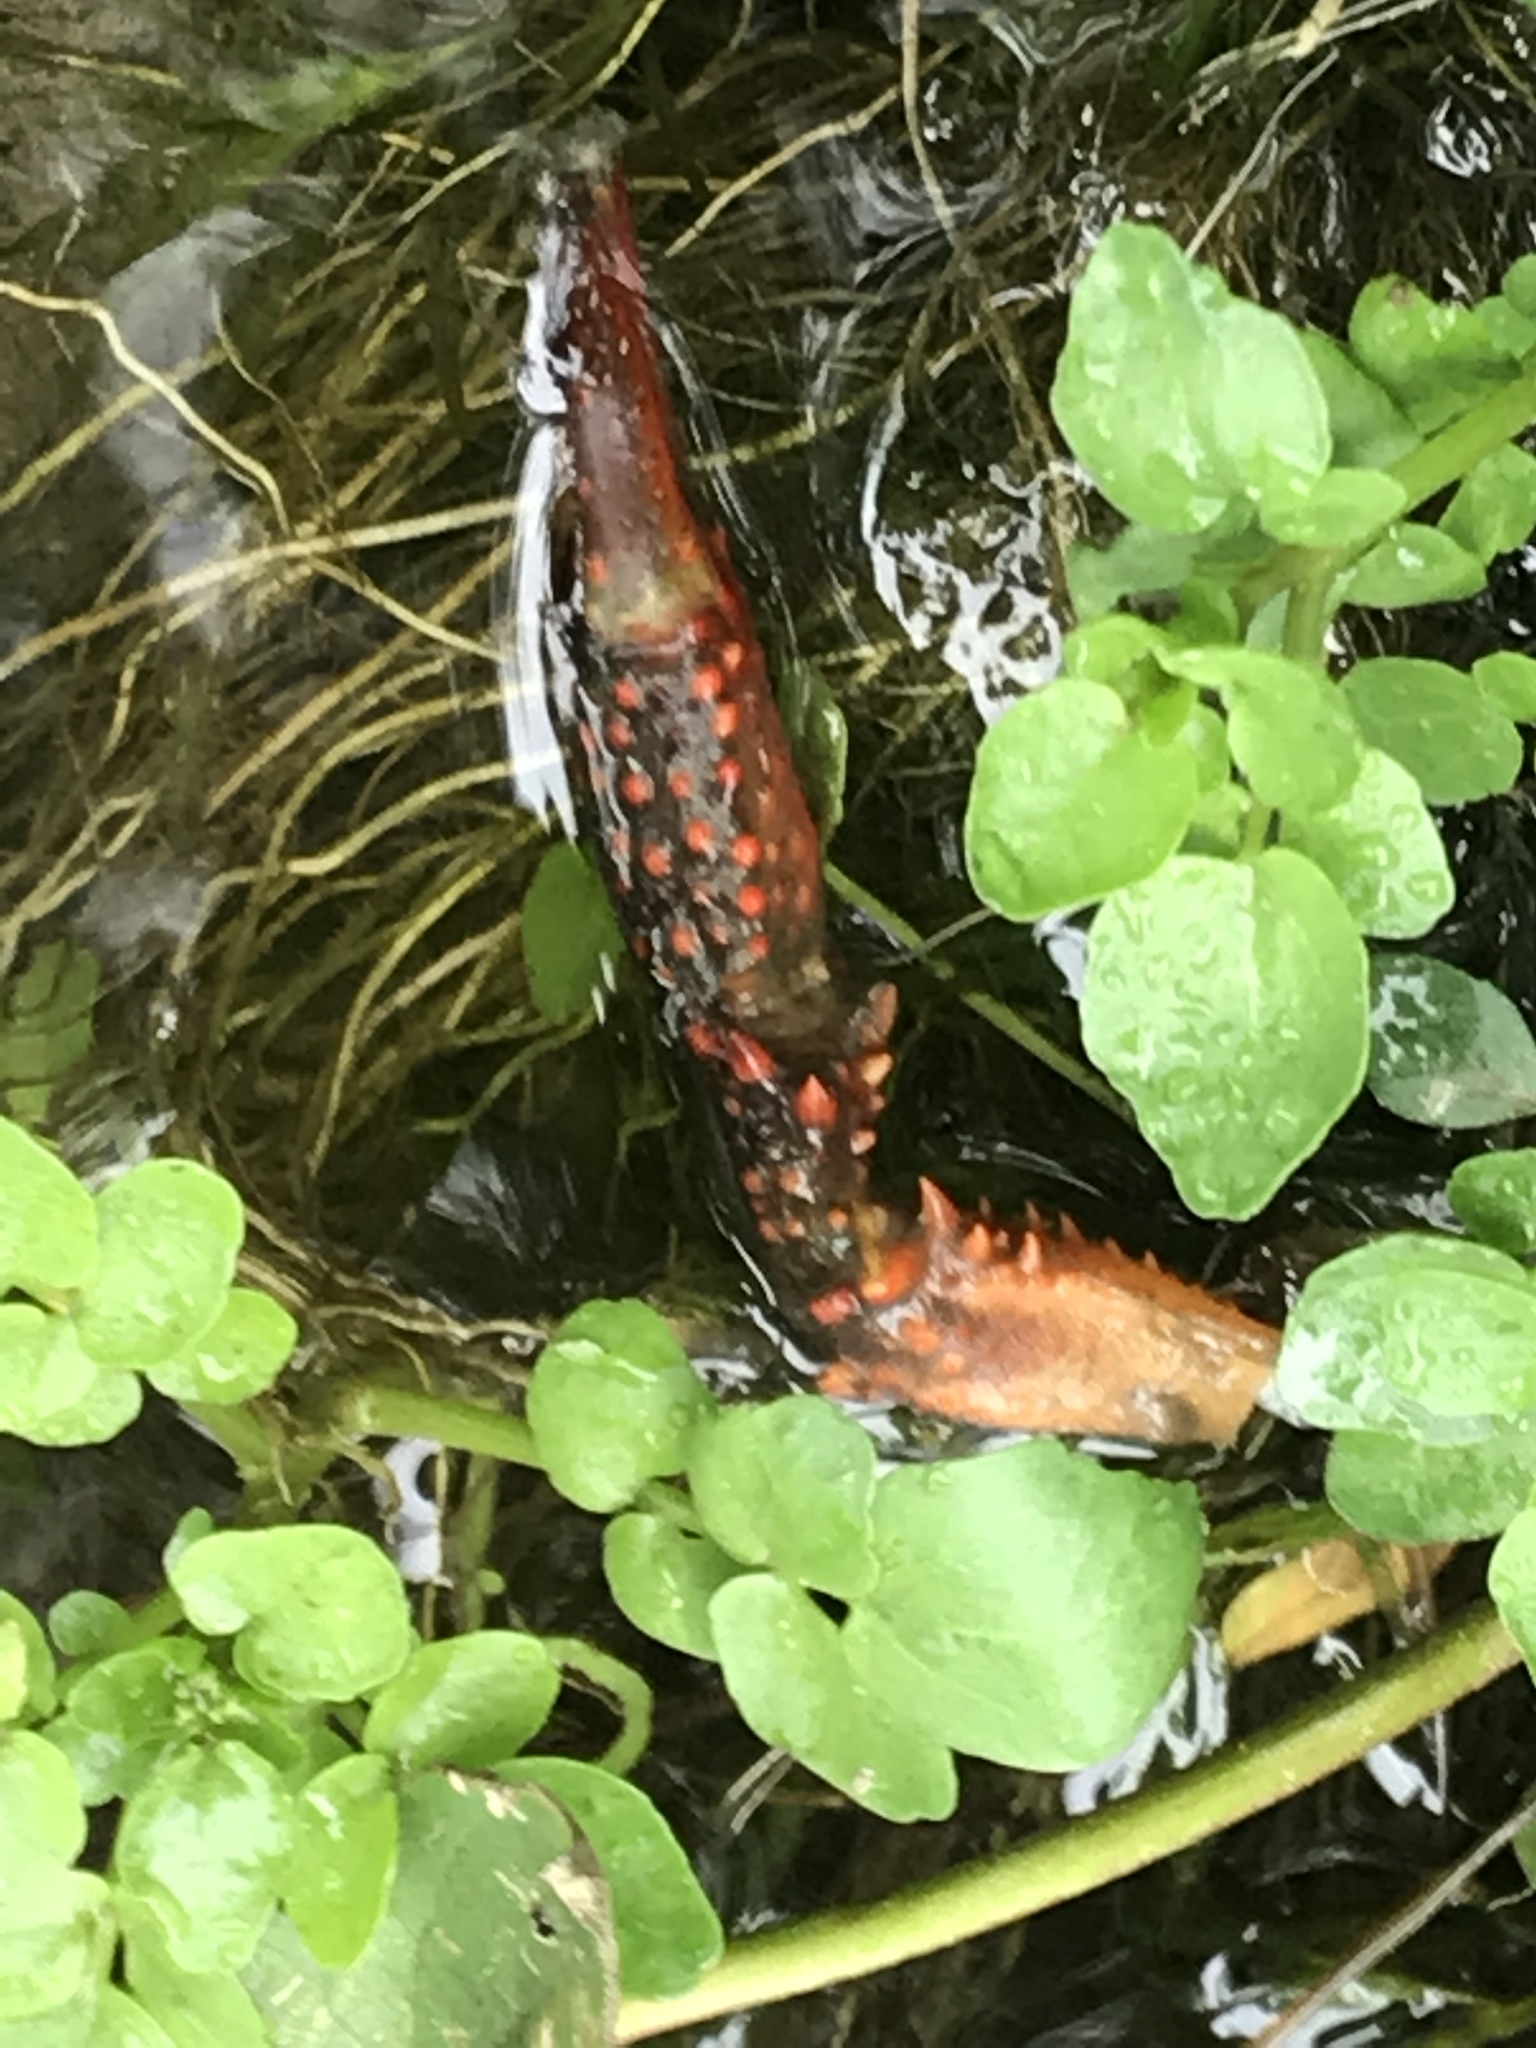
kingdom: Animalia
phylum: Arthropoda
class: Malacostraca
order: Decapoda
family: Cambaridae
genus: Procambarus
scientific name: Procambarus clarkii
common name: Red swamp crayfish
